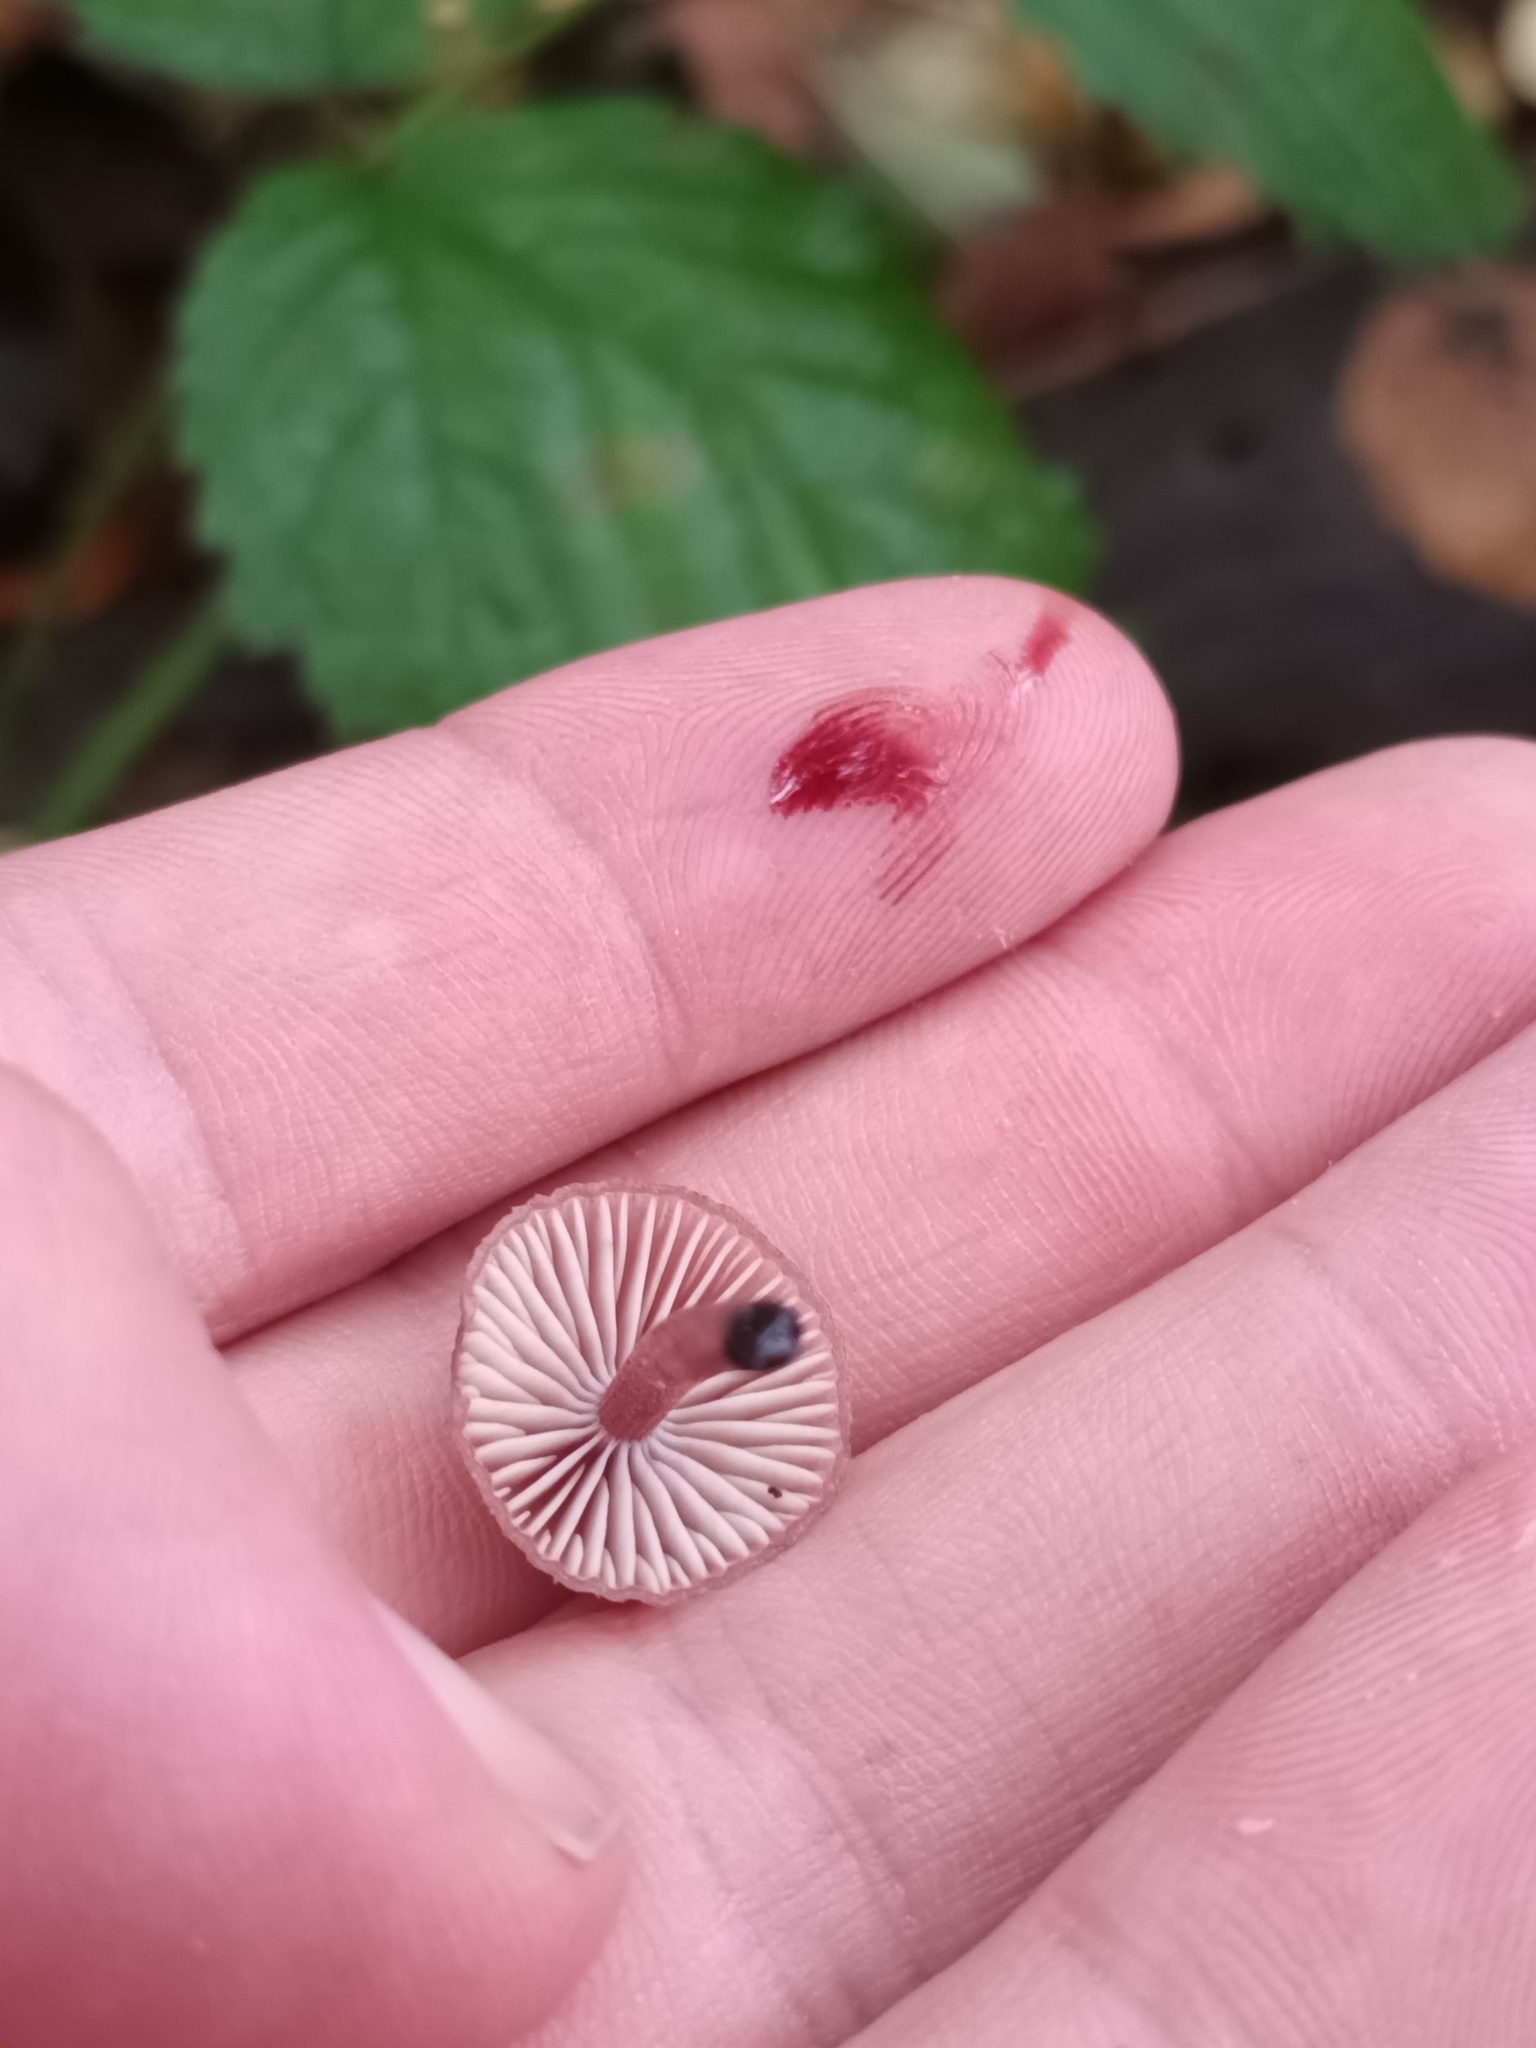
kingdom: Fungi
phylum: Basidiomycota
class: Agaricomycetes
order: Agaricales
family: Mycenaceae
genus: Mycena
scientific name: Mycena haematopus
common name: Burgundydrop bonnet
